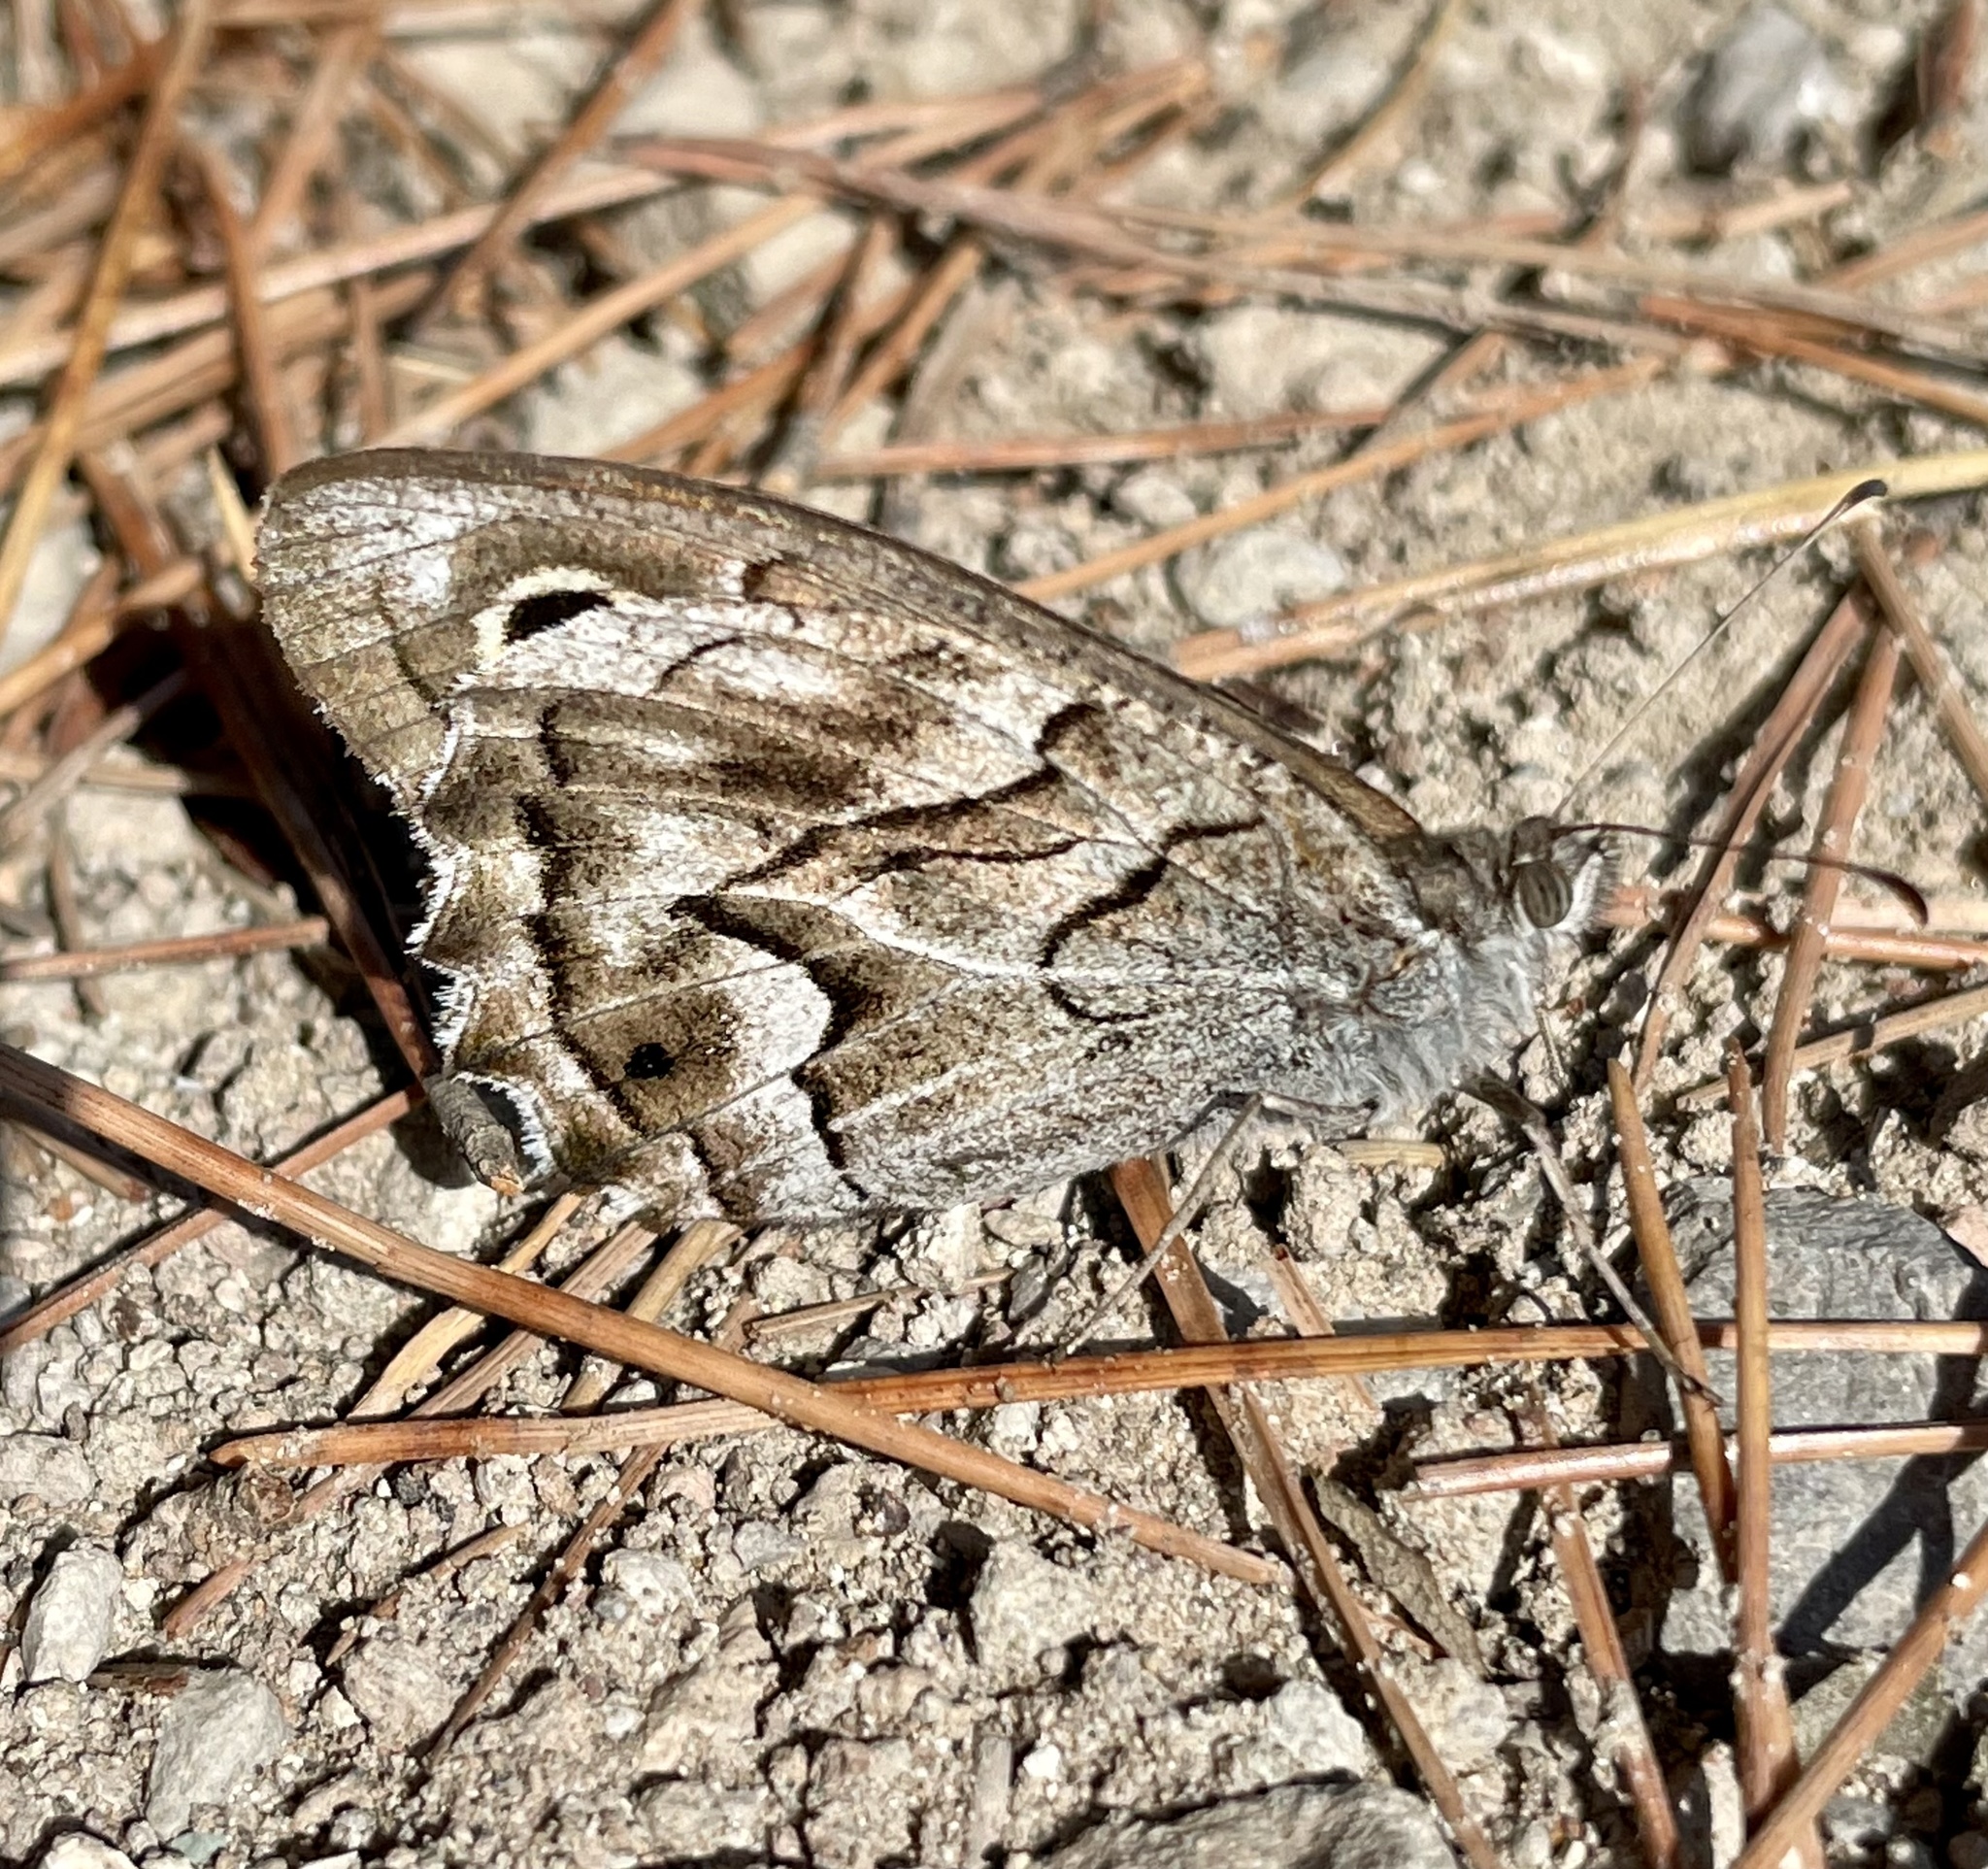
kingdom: Animalia
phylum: Arthropoda
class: Insecta
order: Lepidoptera
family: Nymphalidae
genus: Hipparchia
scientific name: Hipparchia fidia
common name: Striped grayling
